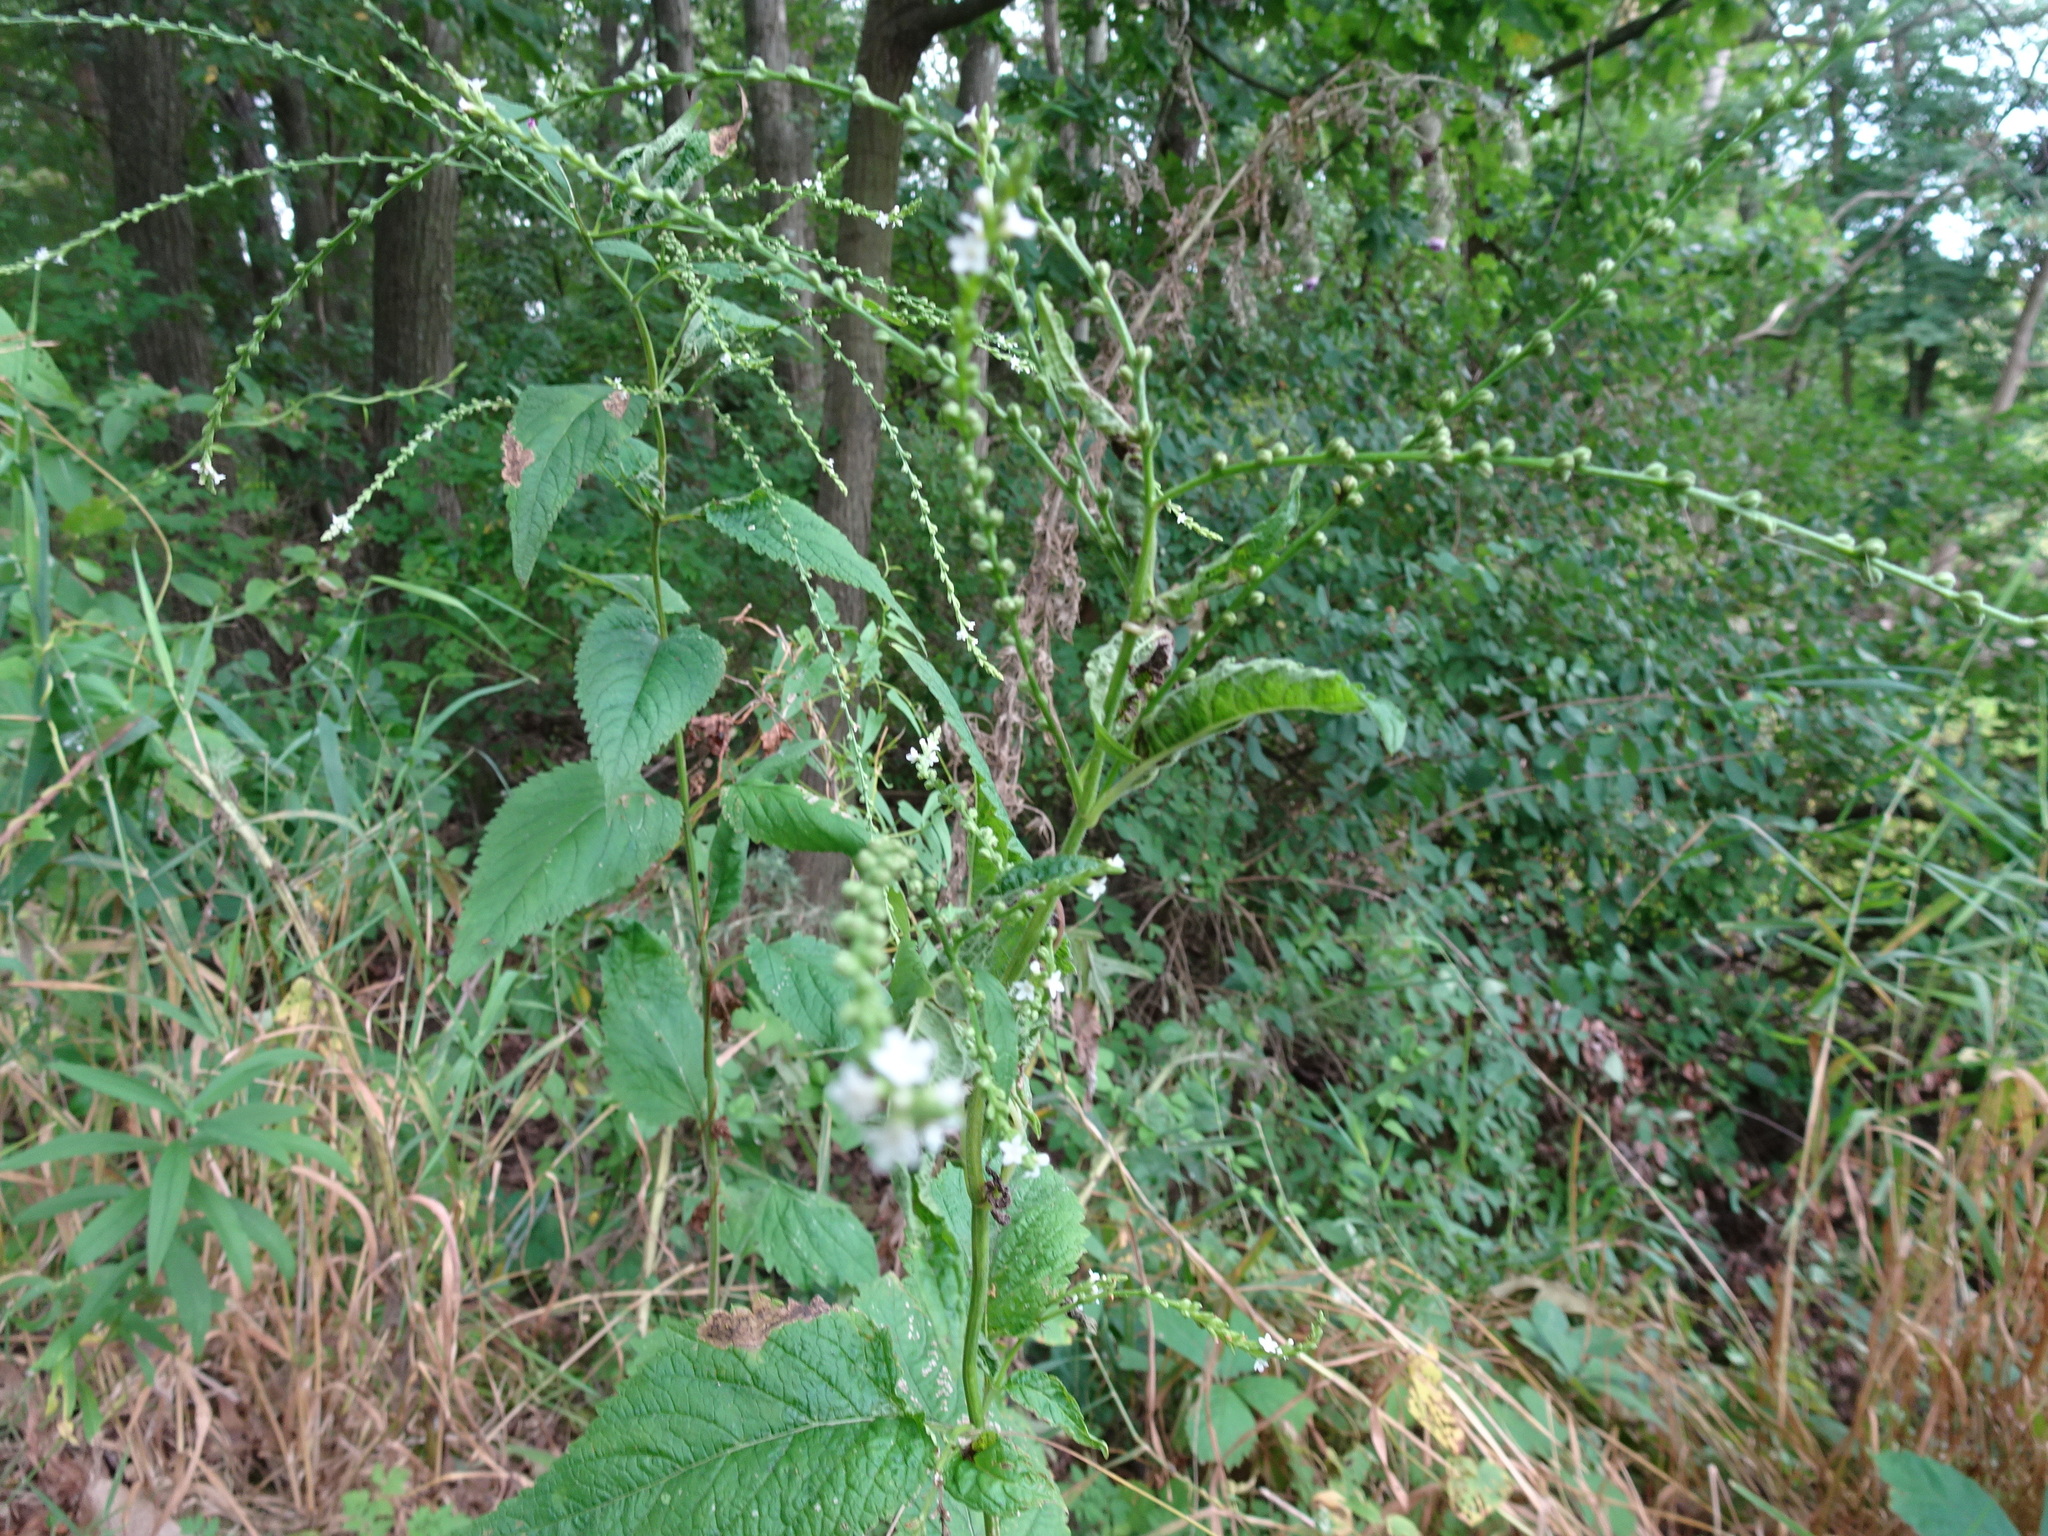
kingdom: Plantae
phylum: Tracheophyta
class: Magnoliopsida
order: Lamiales
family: Verbenaceae
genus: Verbena
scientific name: Verbena urticifolia
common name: Nettle-leaved vervain
